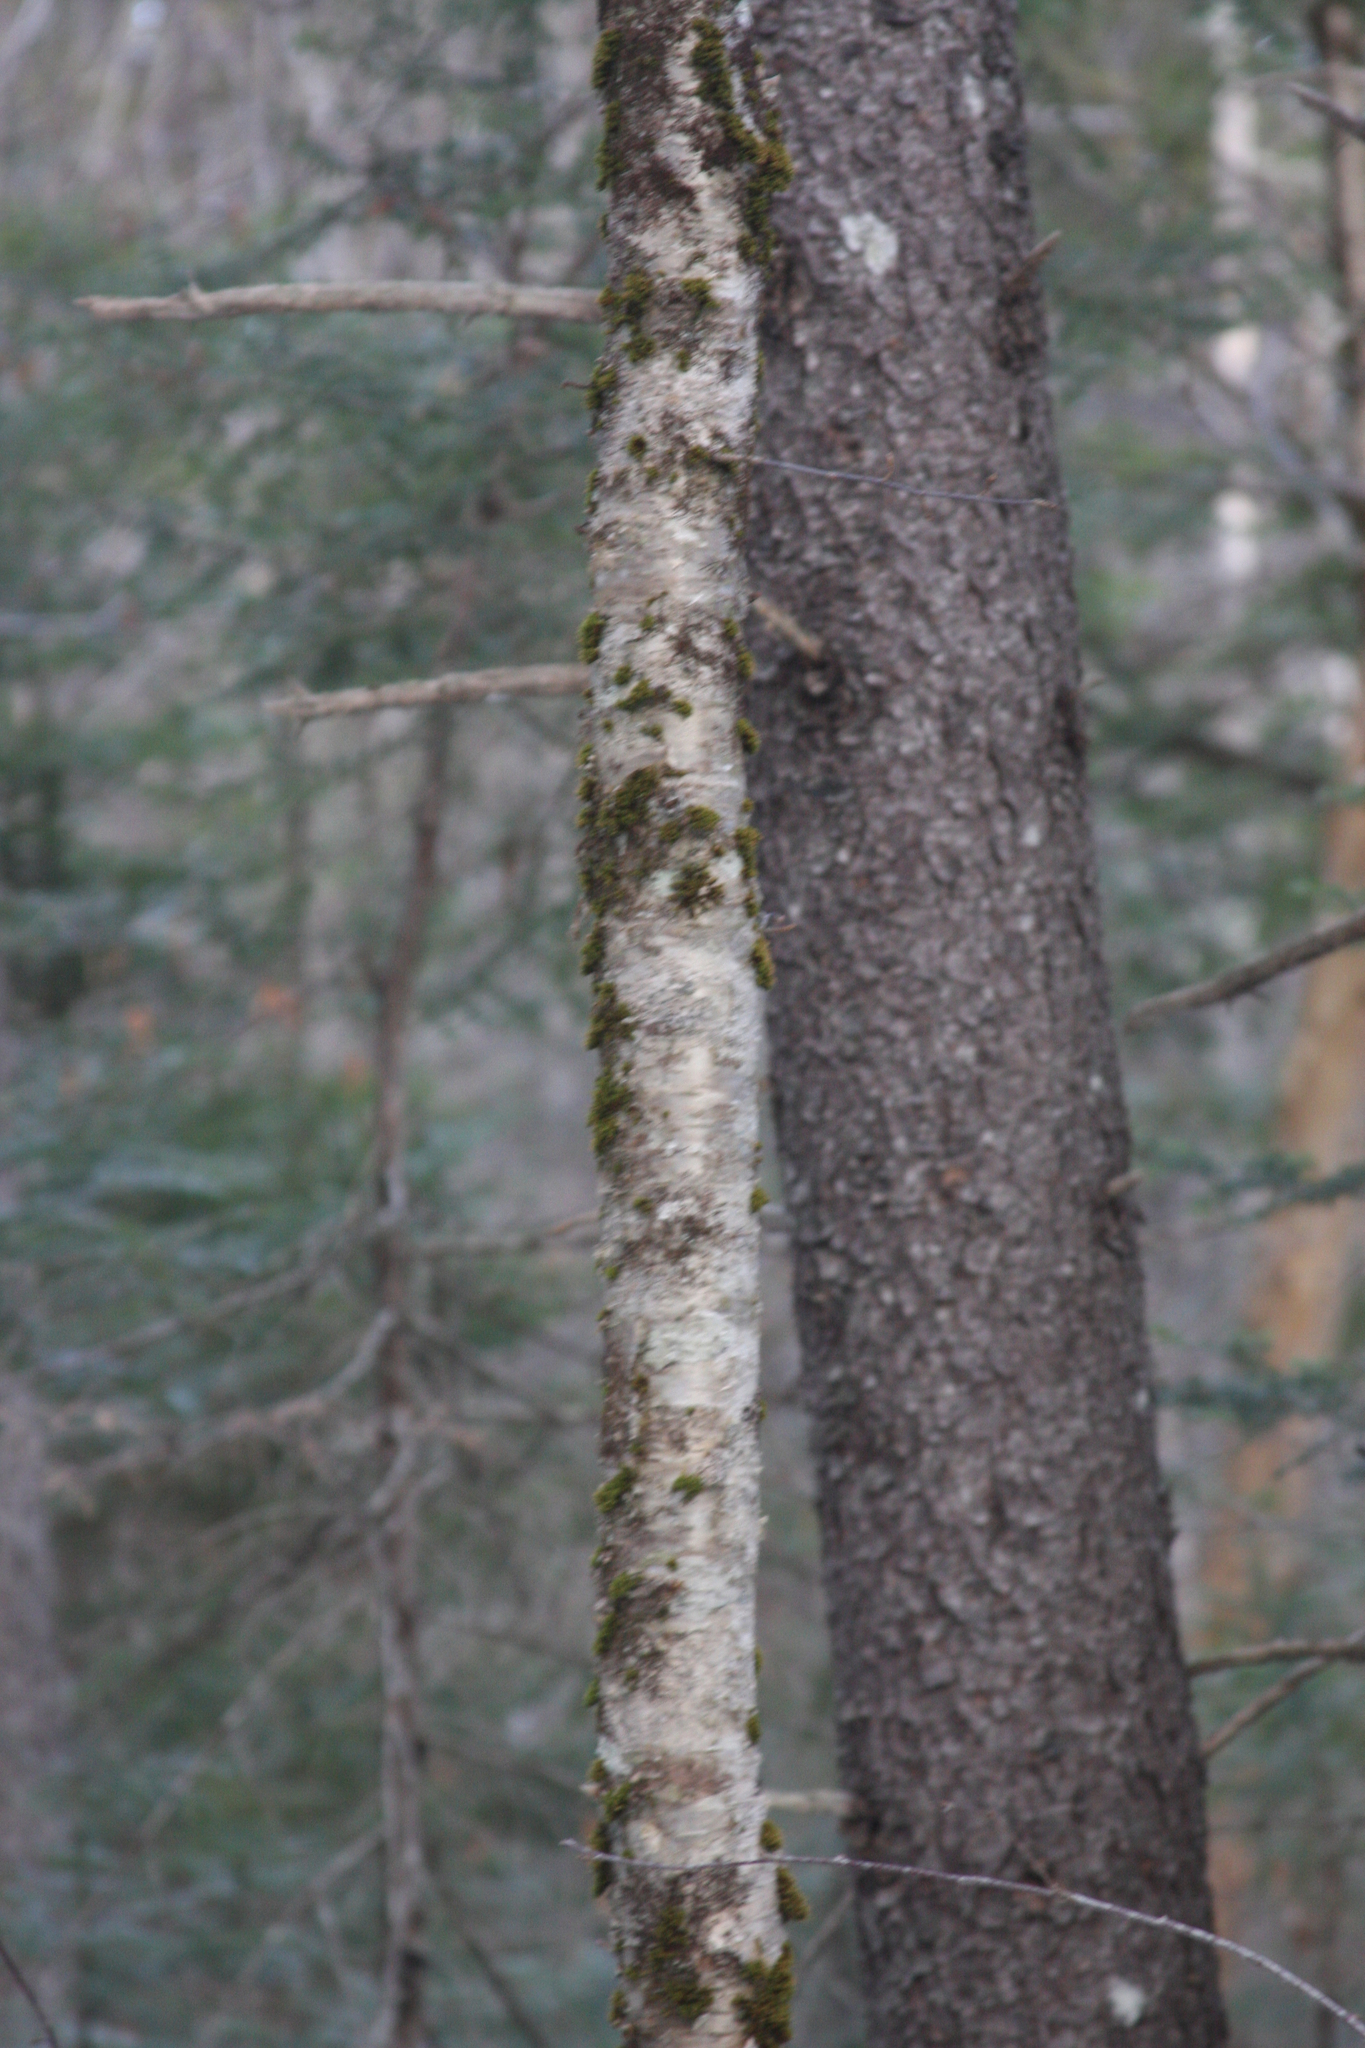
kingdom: Plantae
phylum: Bryophyta
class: Bryopsida
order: Orthotrichales
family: Orthotrichaceae
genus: Ulota
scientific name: Ulota crispa
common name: Crisped pincushion moss
